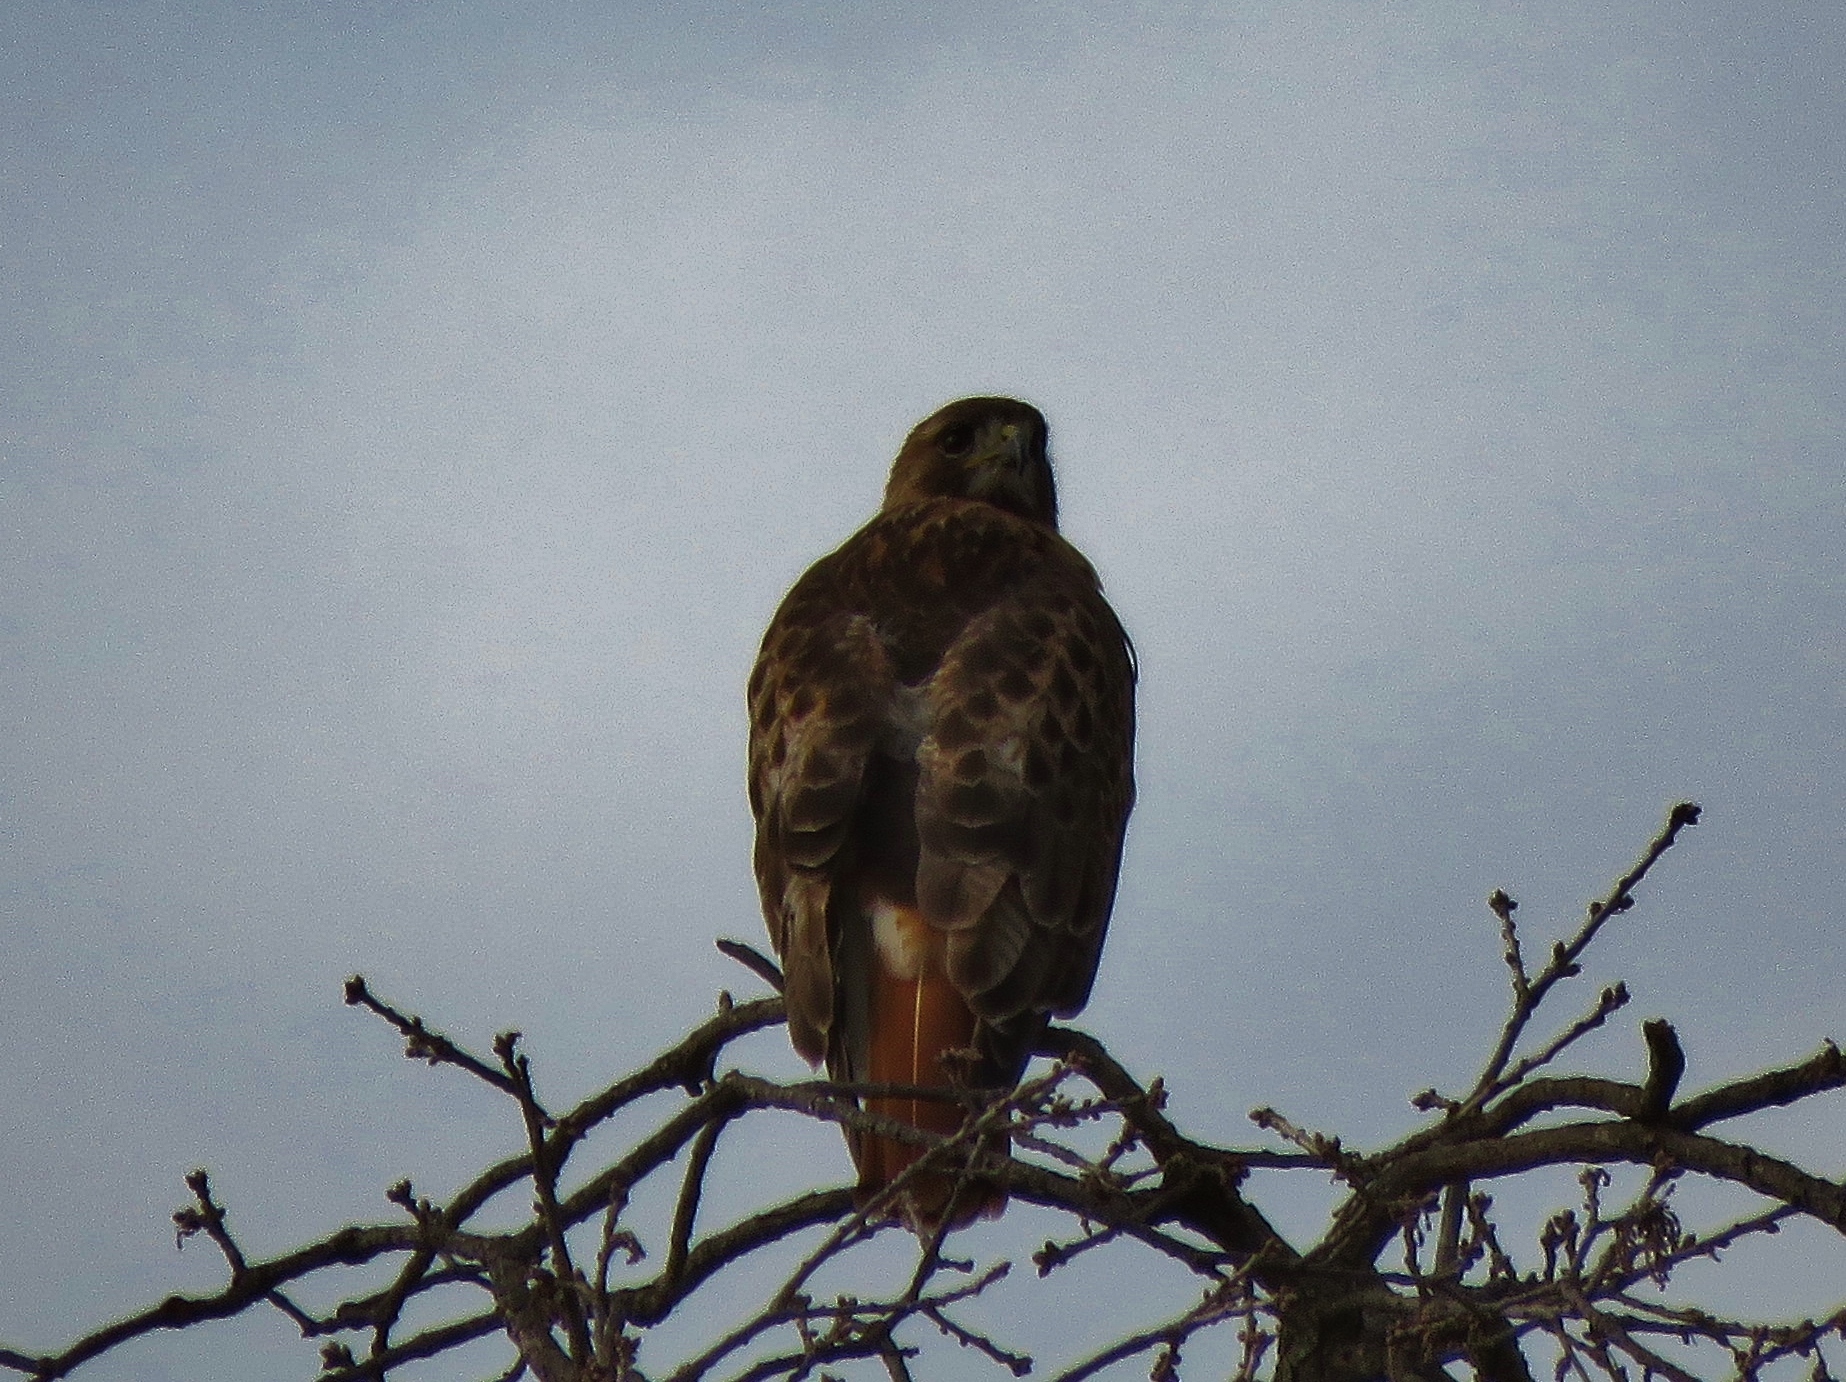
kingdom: Animalia
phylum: Chordata
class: Aves
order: Accipitriformes
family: Accipitridae
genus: Buteo
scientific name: Buteo jamaicensis
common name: Red-tailed hawk
